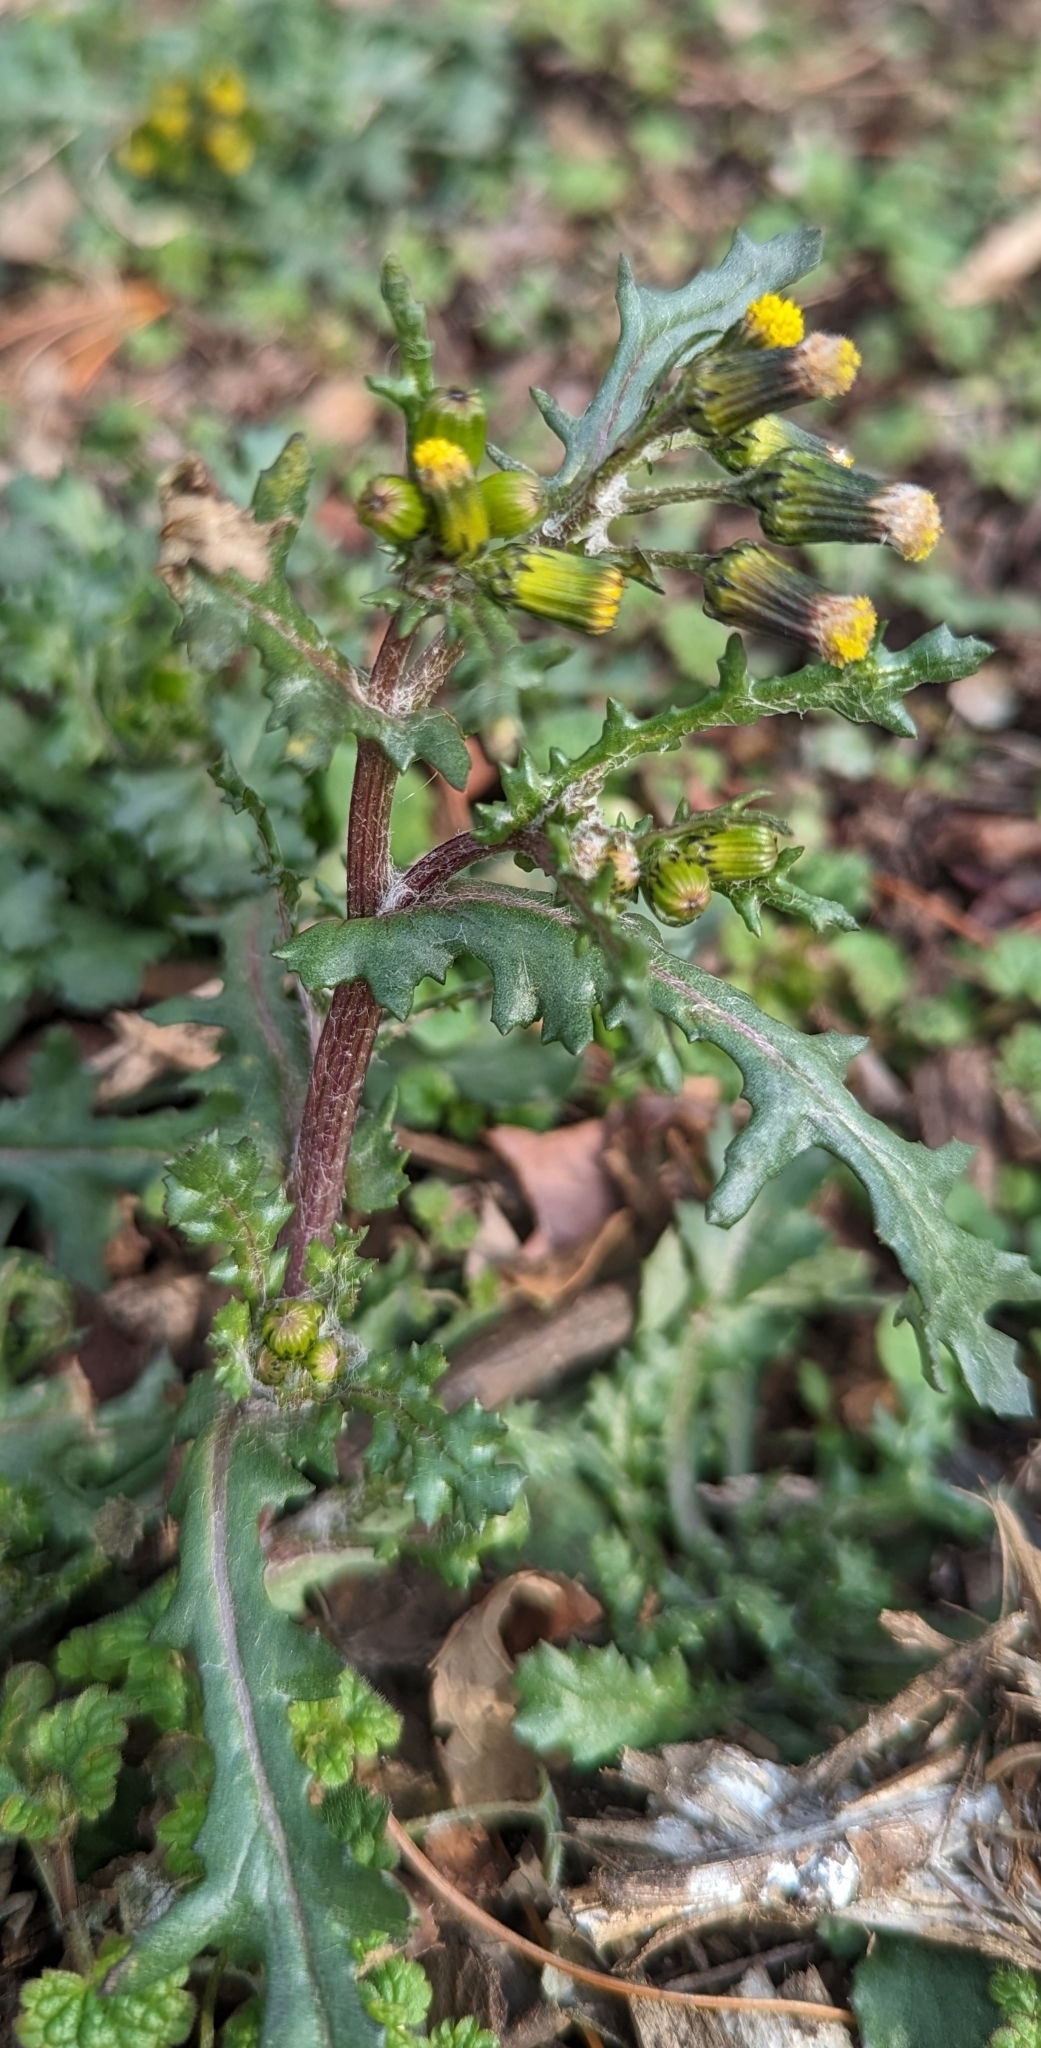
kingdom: Plantae
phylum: Tracheophyta
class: Magnoliopsida
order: Asterales
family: Asteraceae
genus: Senecio
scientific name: Senecio vulgaris
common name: Old-man-in-the-spring
